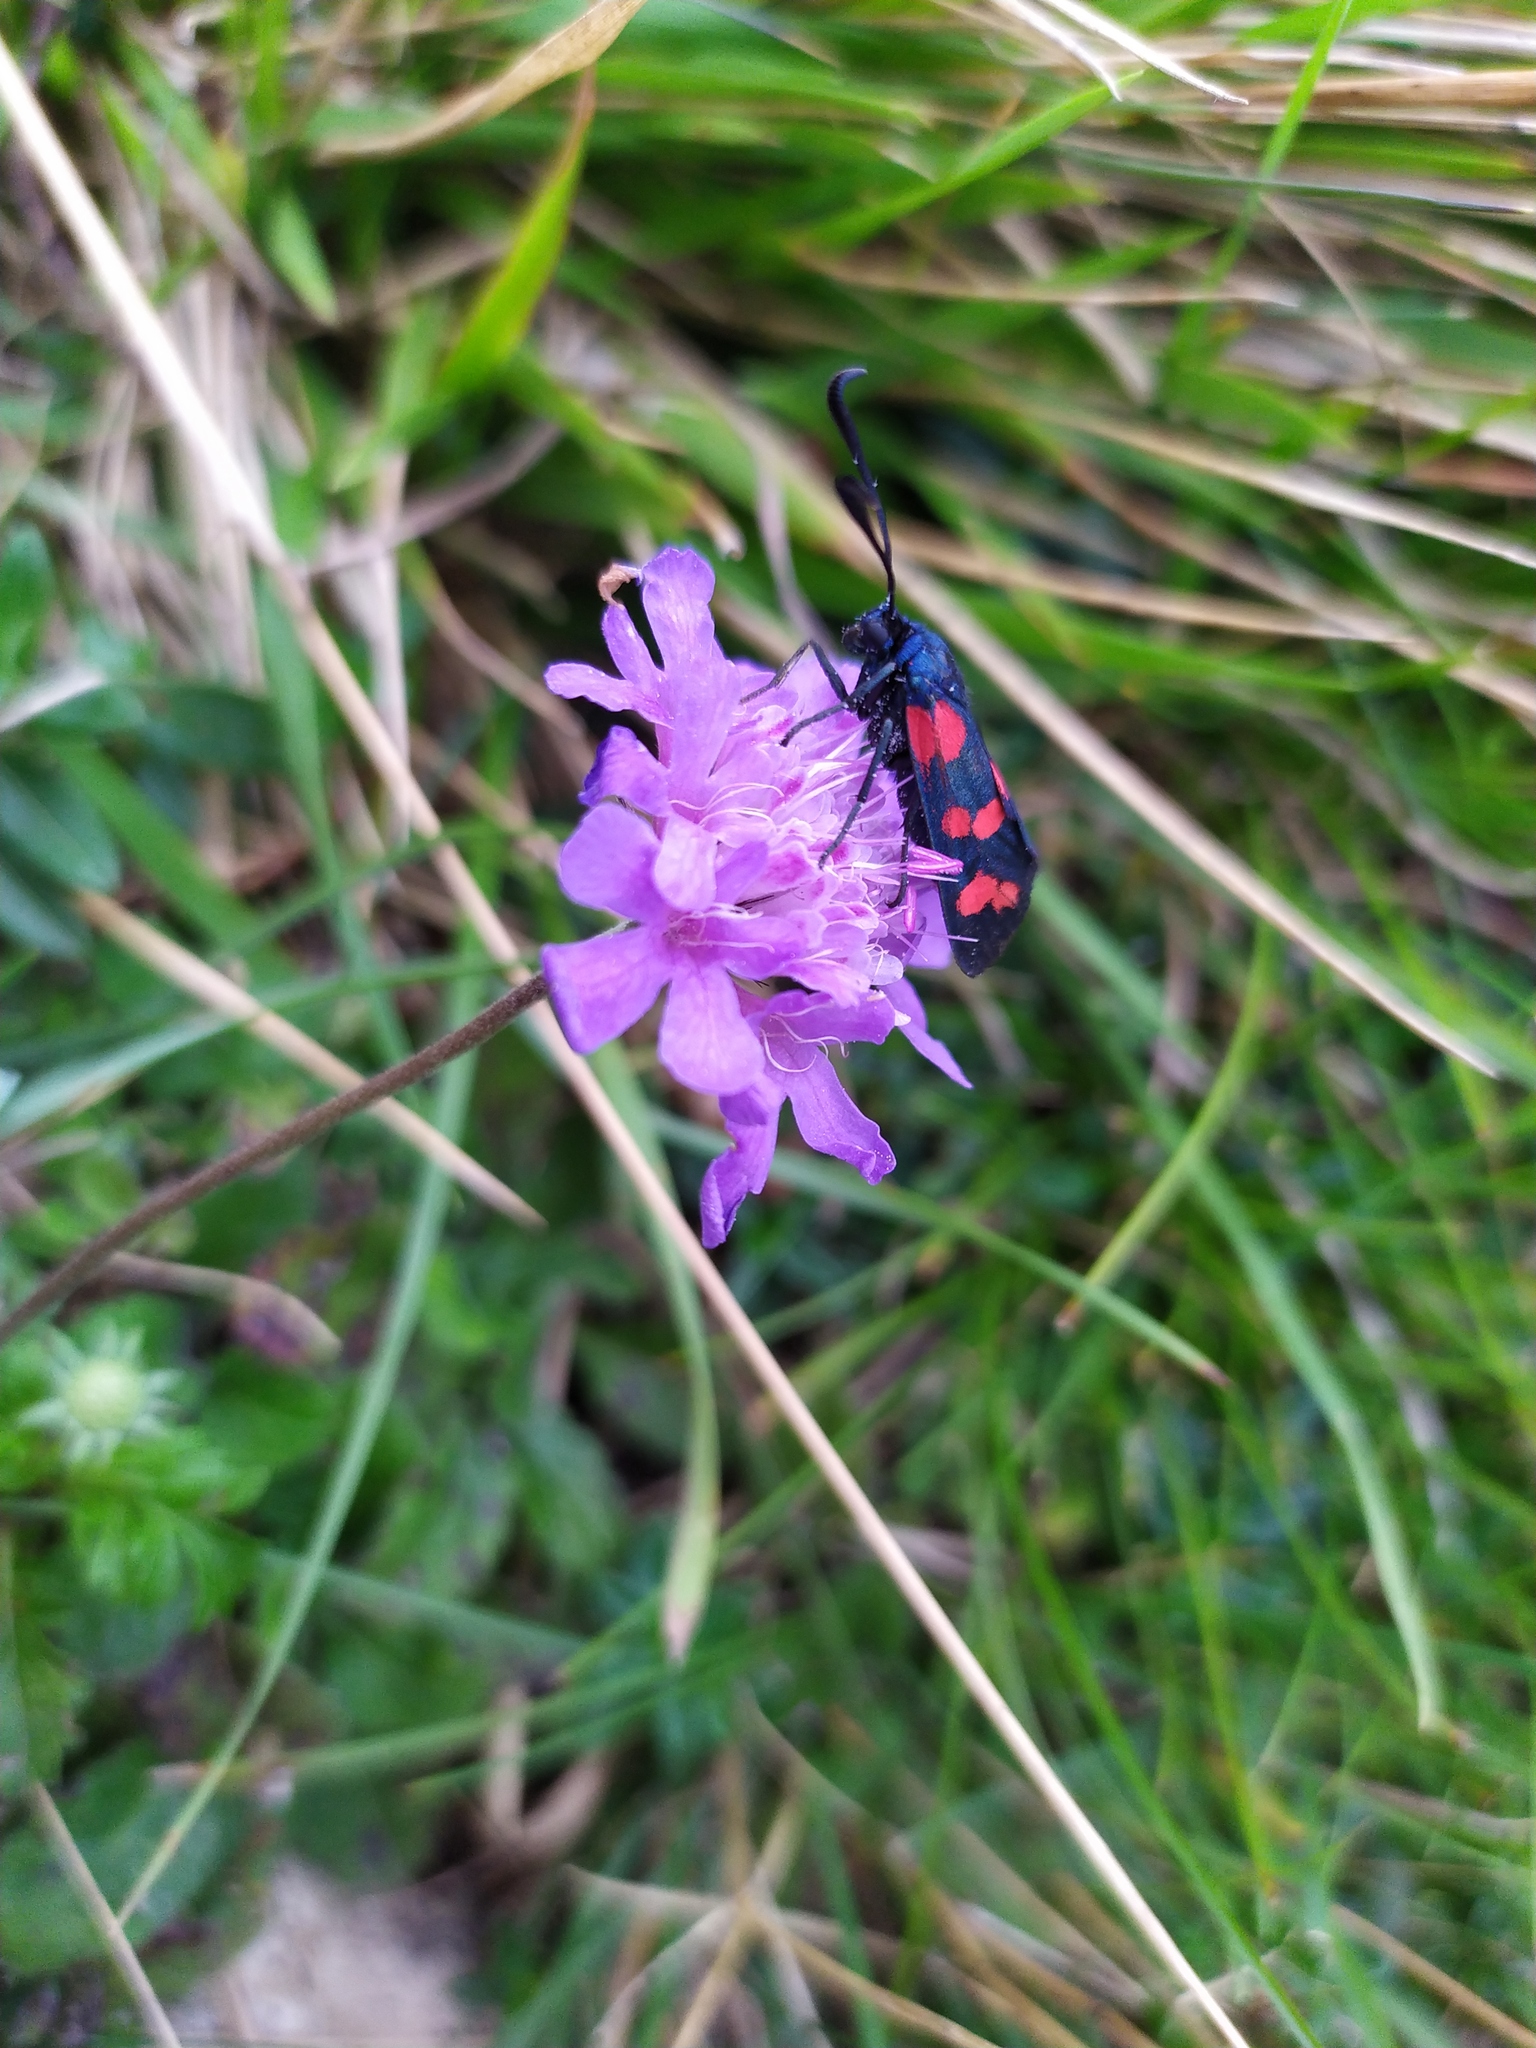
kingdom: Animalia
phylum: Arthropoda
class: Insecta
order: Lepidoptera
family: Zygaenidae
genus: Zygaena
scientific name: Zygaena filipendulae
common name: Six-spot burnet
